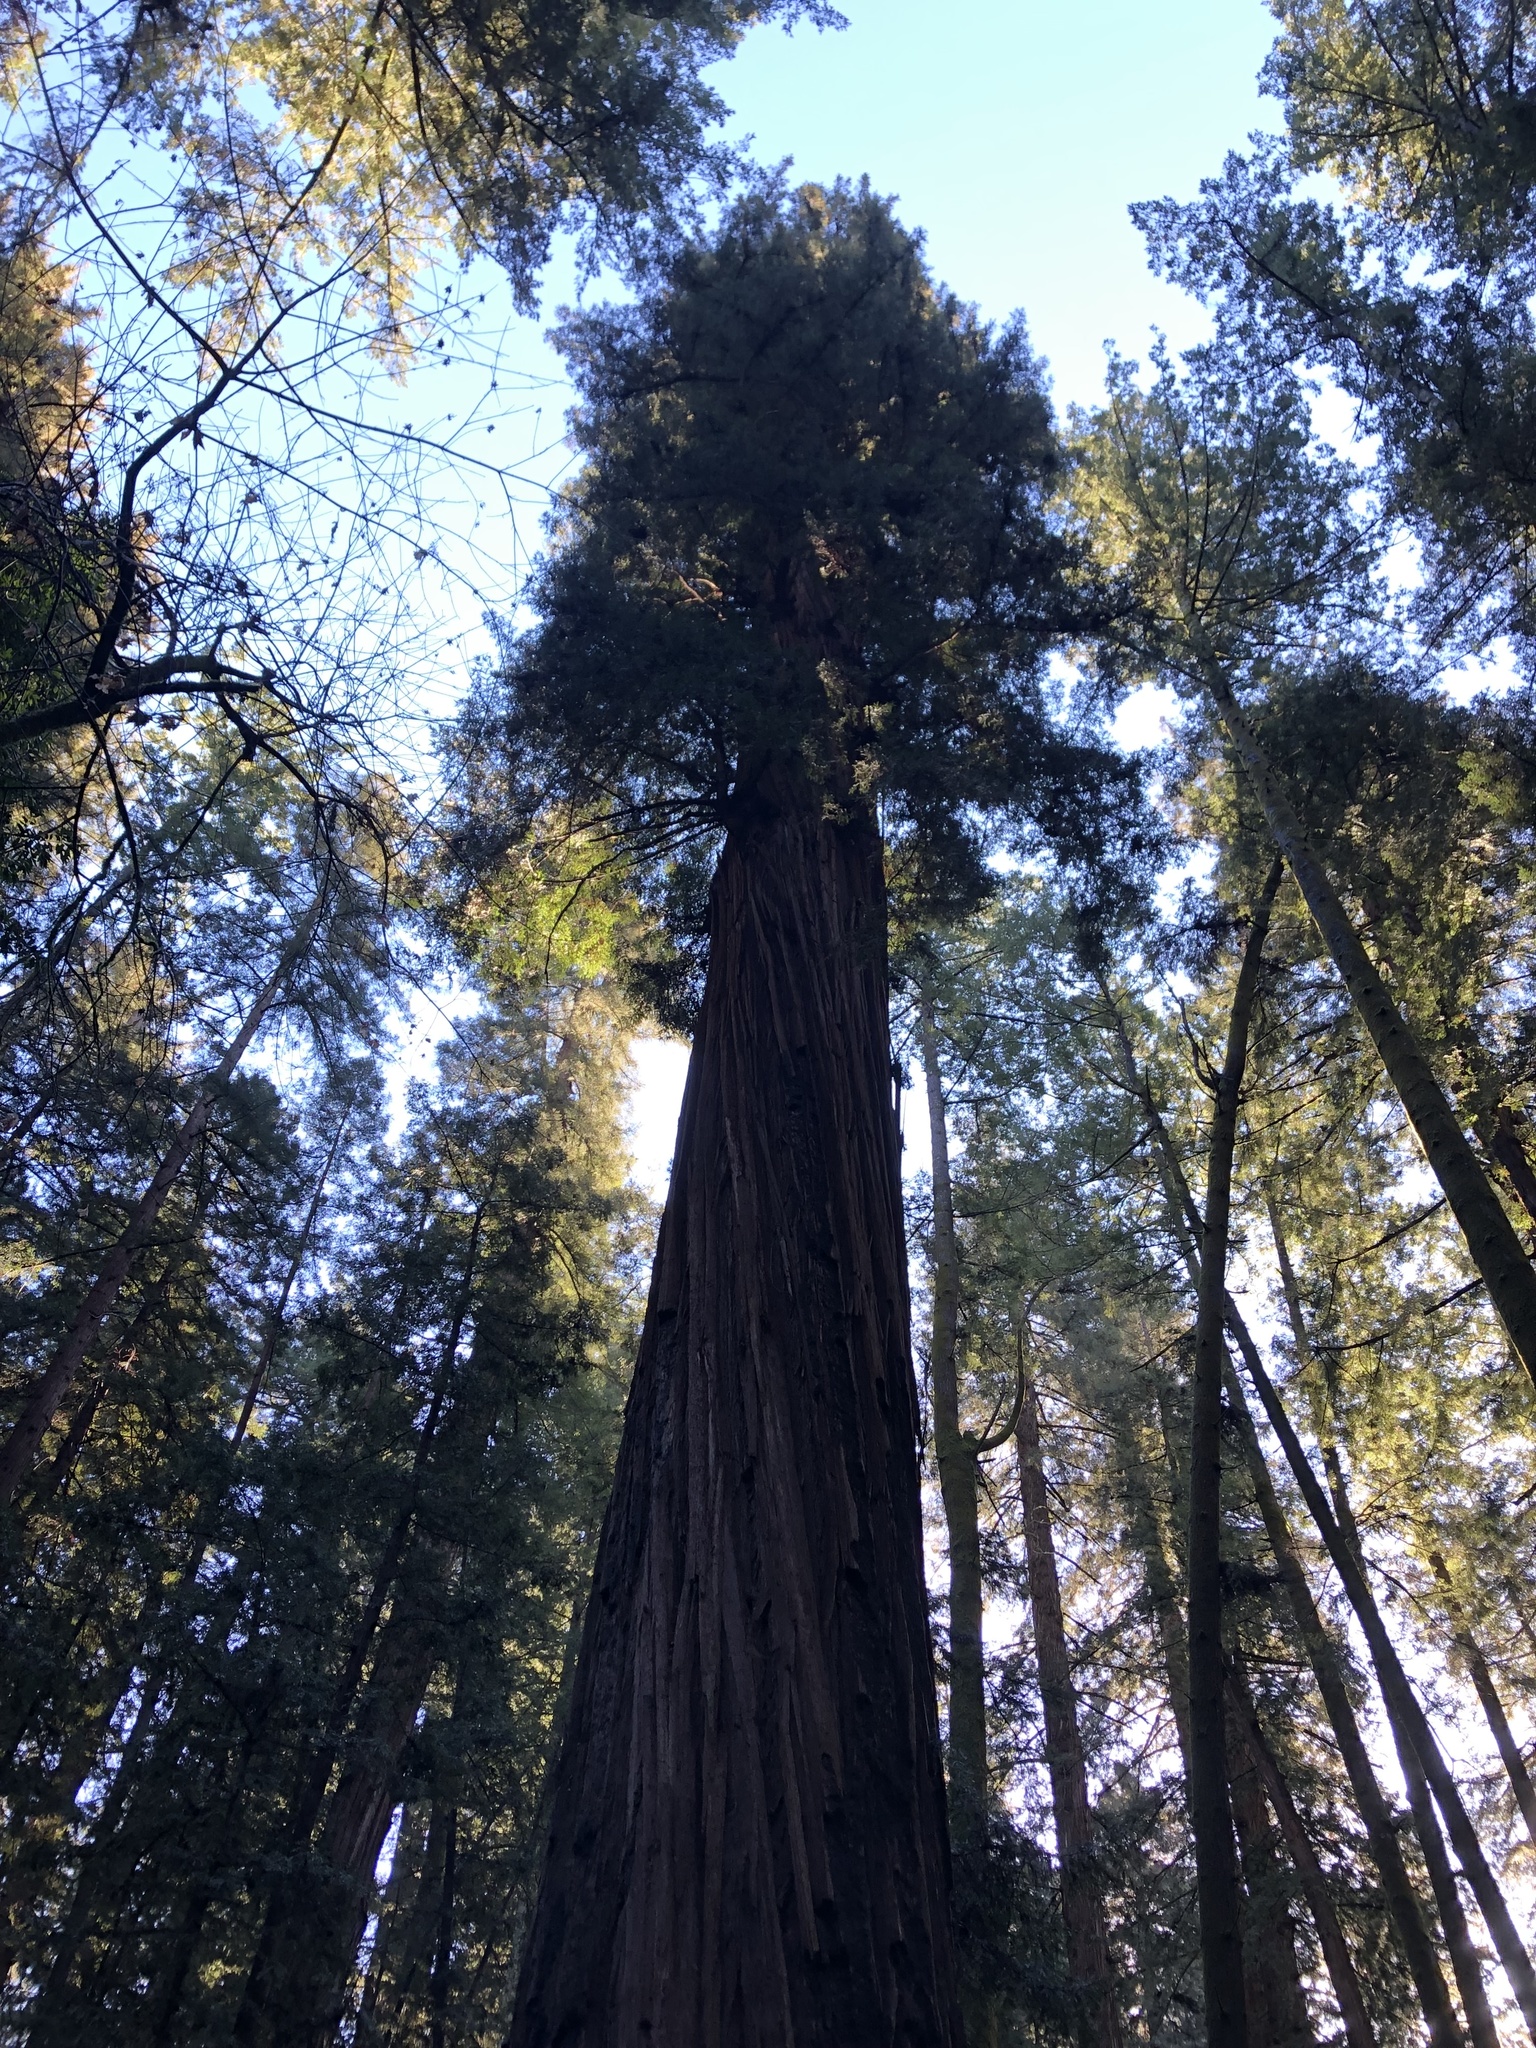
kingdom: Plantae
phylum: Tracheophyta
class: Pinopsida
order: Pinales
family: Cupressaceae
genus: Sequoia
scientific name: Sequoia sempervirens
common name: Coast redwood
